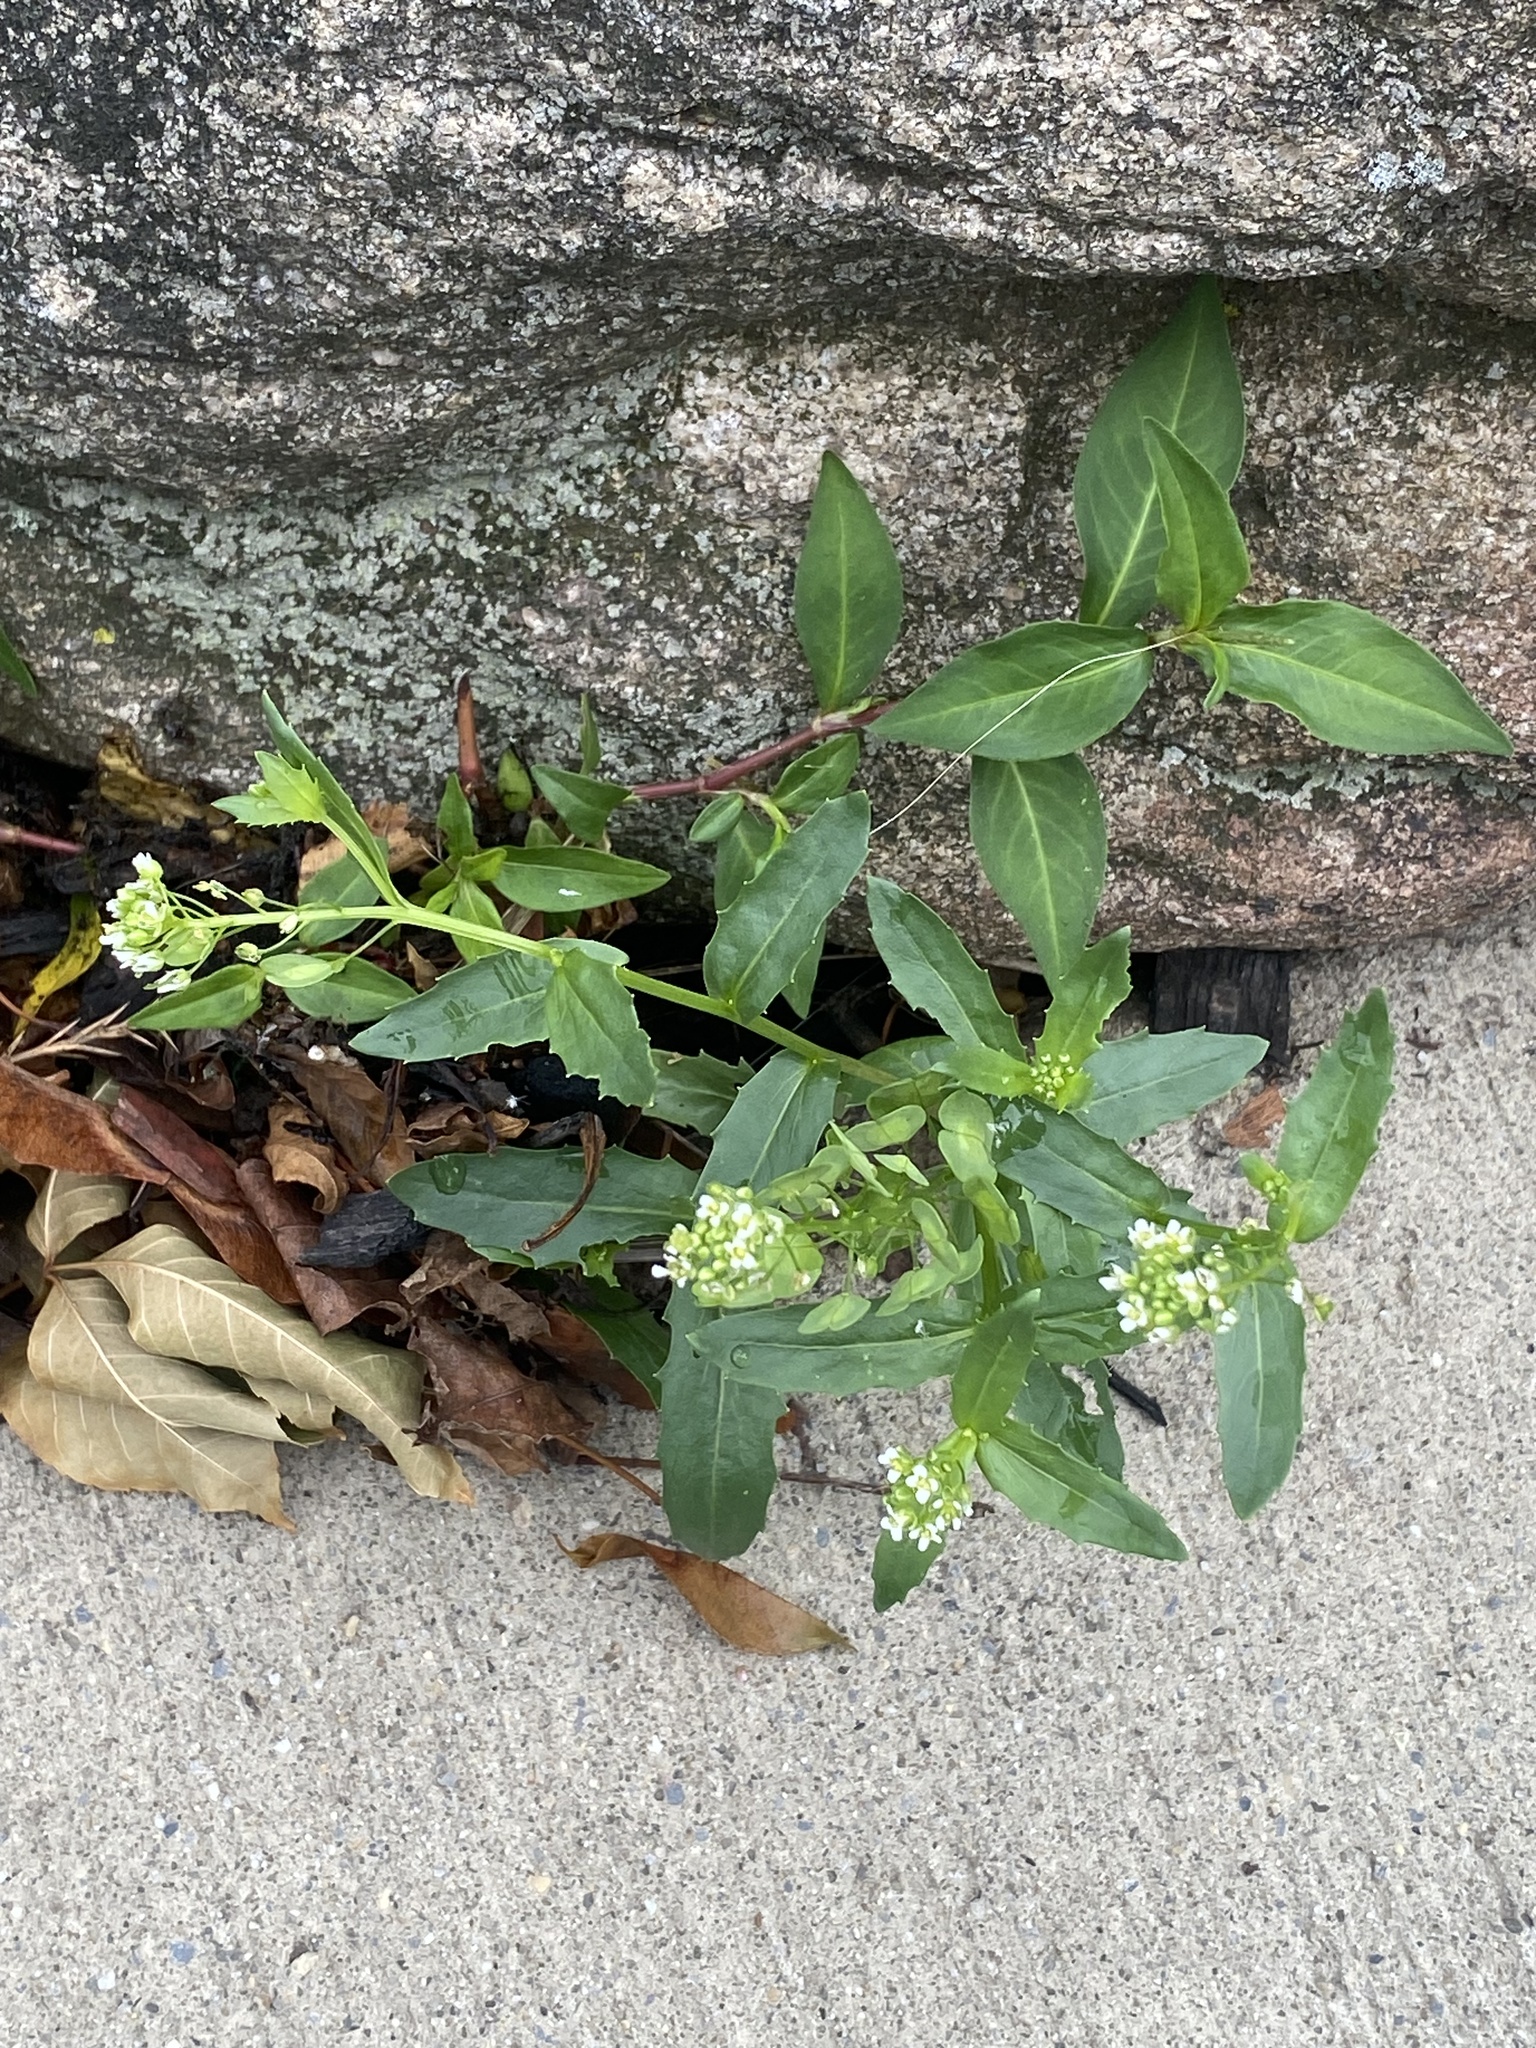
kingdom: Plantae
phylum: Tracheophyta
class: Magnoliopsida
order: Brassicales
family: Brassicaceae
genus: Thlaspi
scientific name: Thlaspi arvense
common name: Field pennycress
